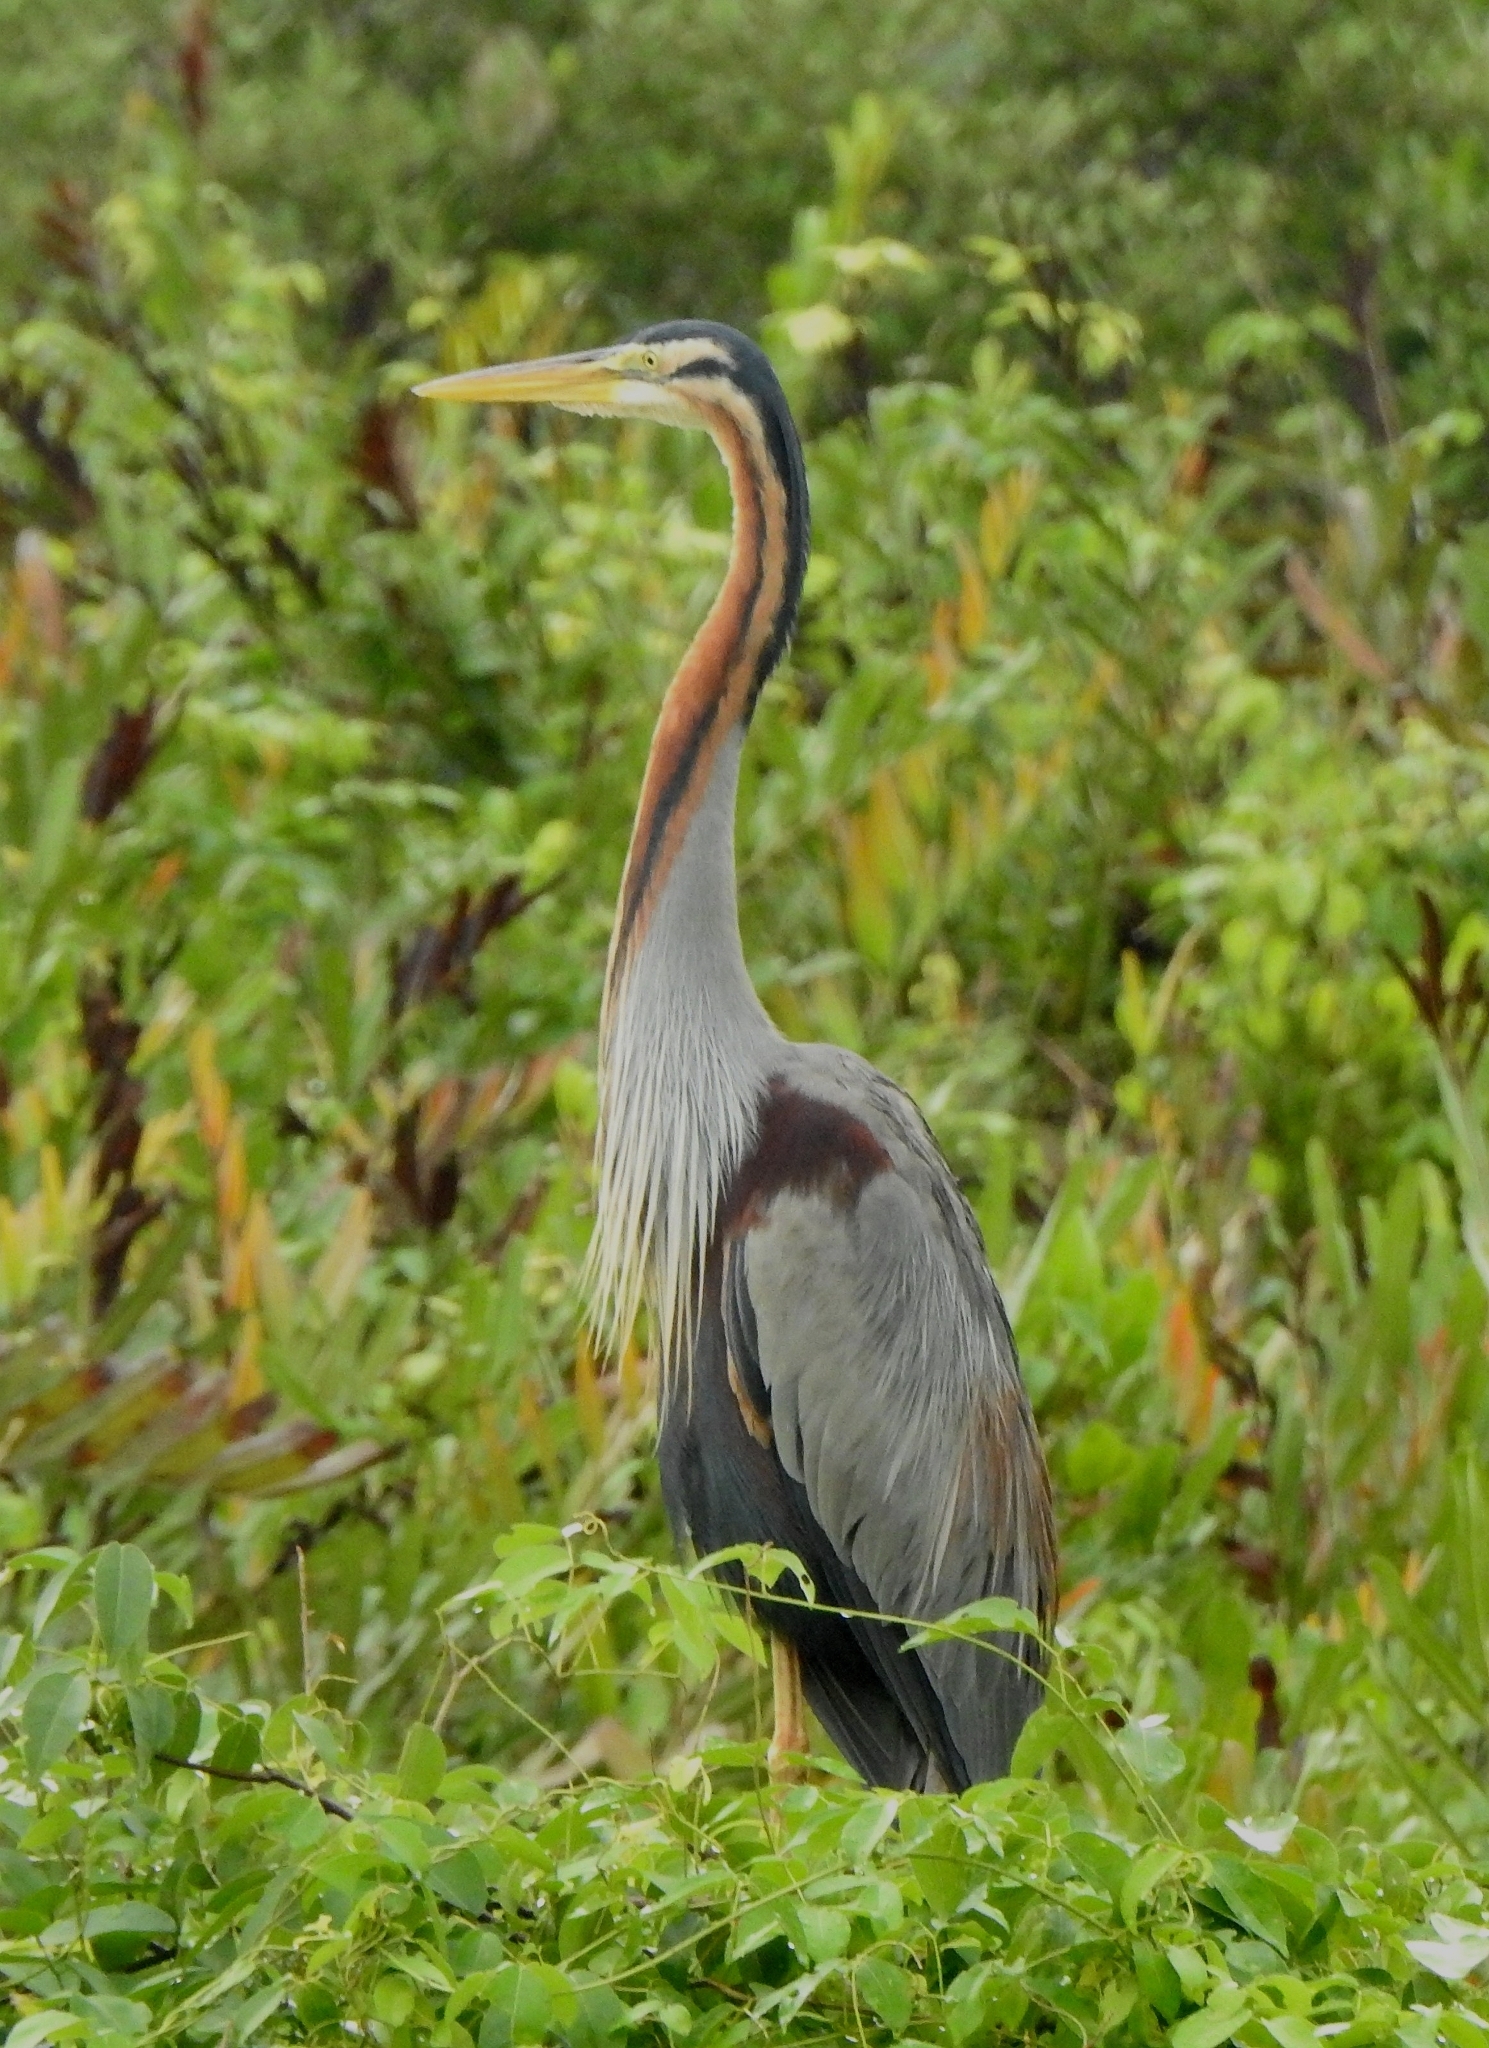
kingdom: Animalia
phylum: Chordata
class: Aves
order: Pelecaniformes
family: Ardeidae
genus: Ardea
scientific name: Ardea purpurea
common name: Purple heron
